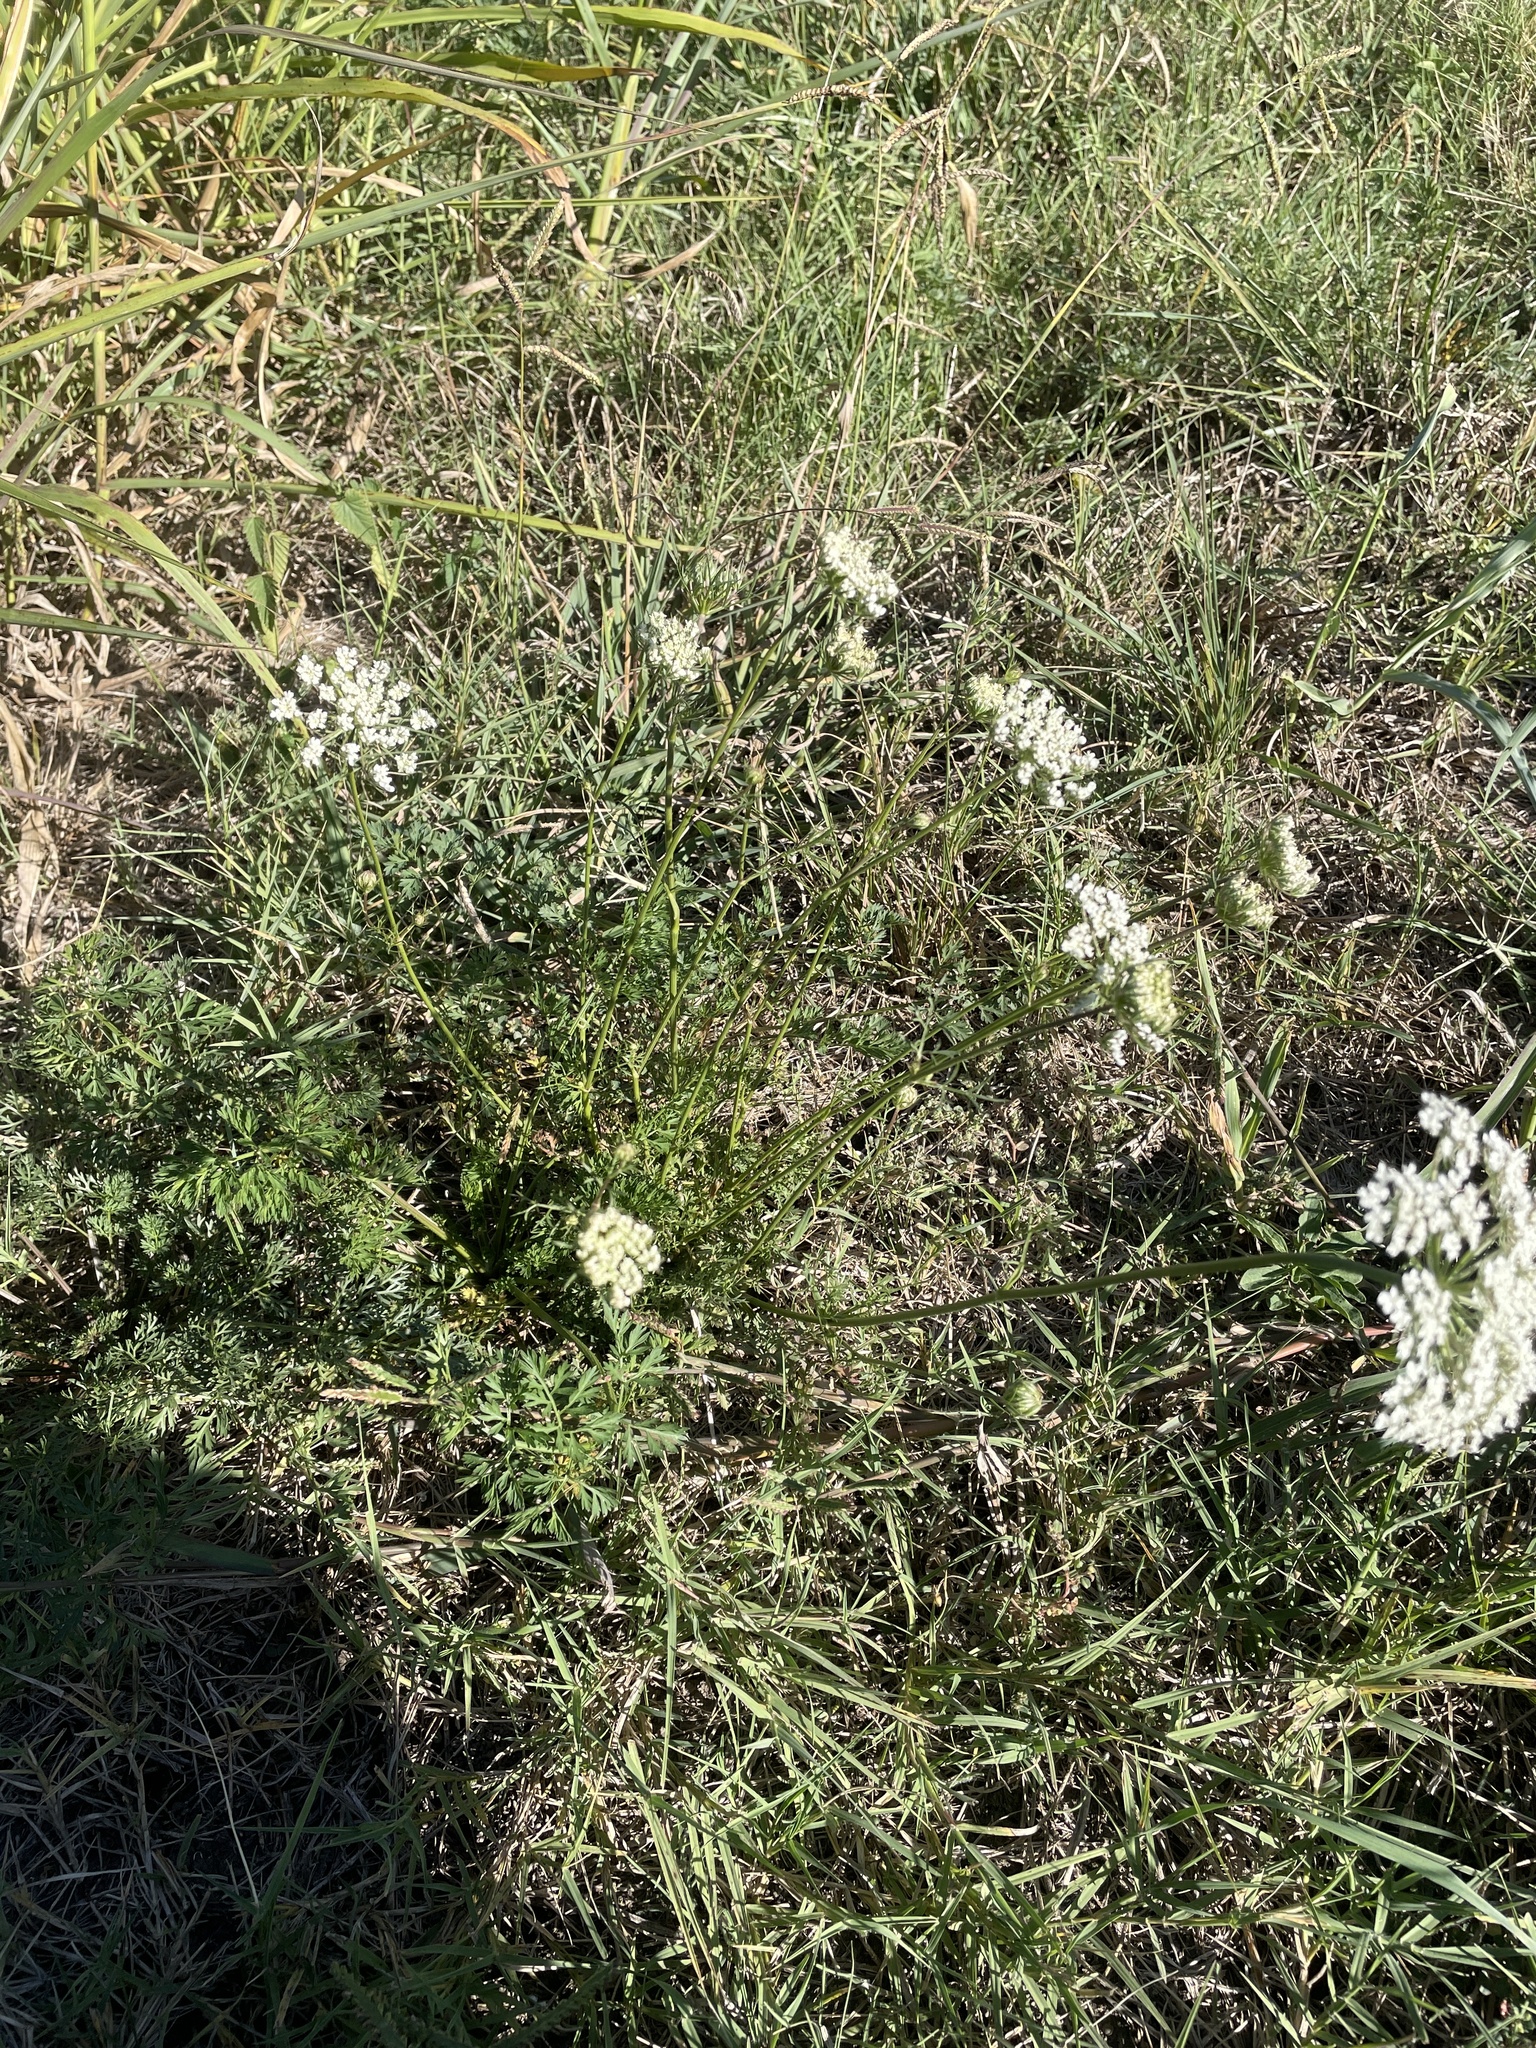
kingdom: Plantae
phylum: Tracheophyta
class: Magnoliopsida
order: Apiales
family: Apiaceae
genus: Daucus
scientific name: Daucus carota
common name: Wild carrot
